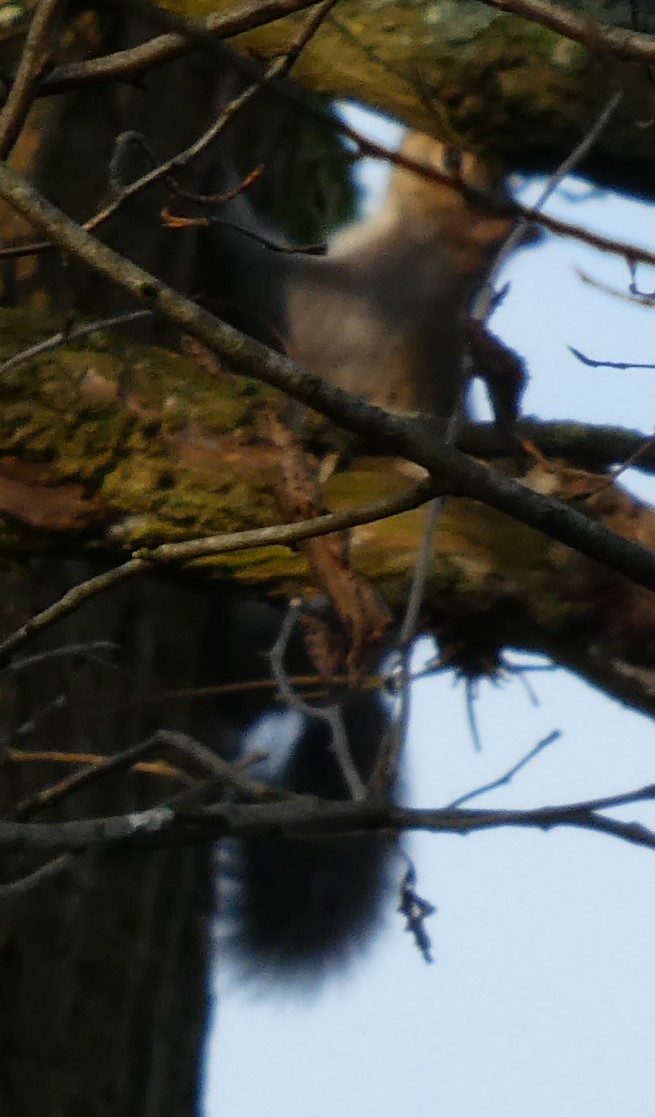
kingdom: Animalia
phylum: Chordata
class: Mammalia
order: Rodentia
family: Sciuridae
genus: Sciurus
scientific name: Sciurus carolinensis
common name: Eastern gray squirrel
